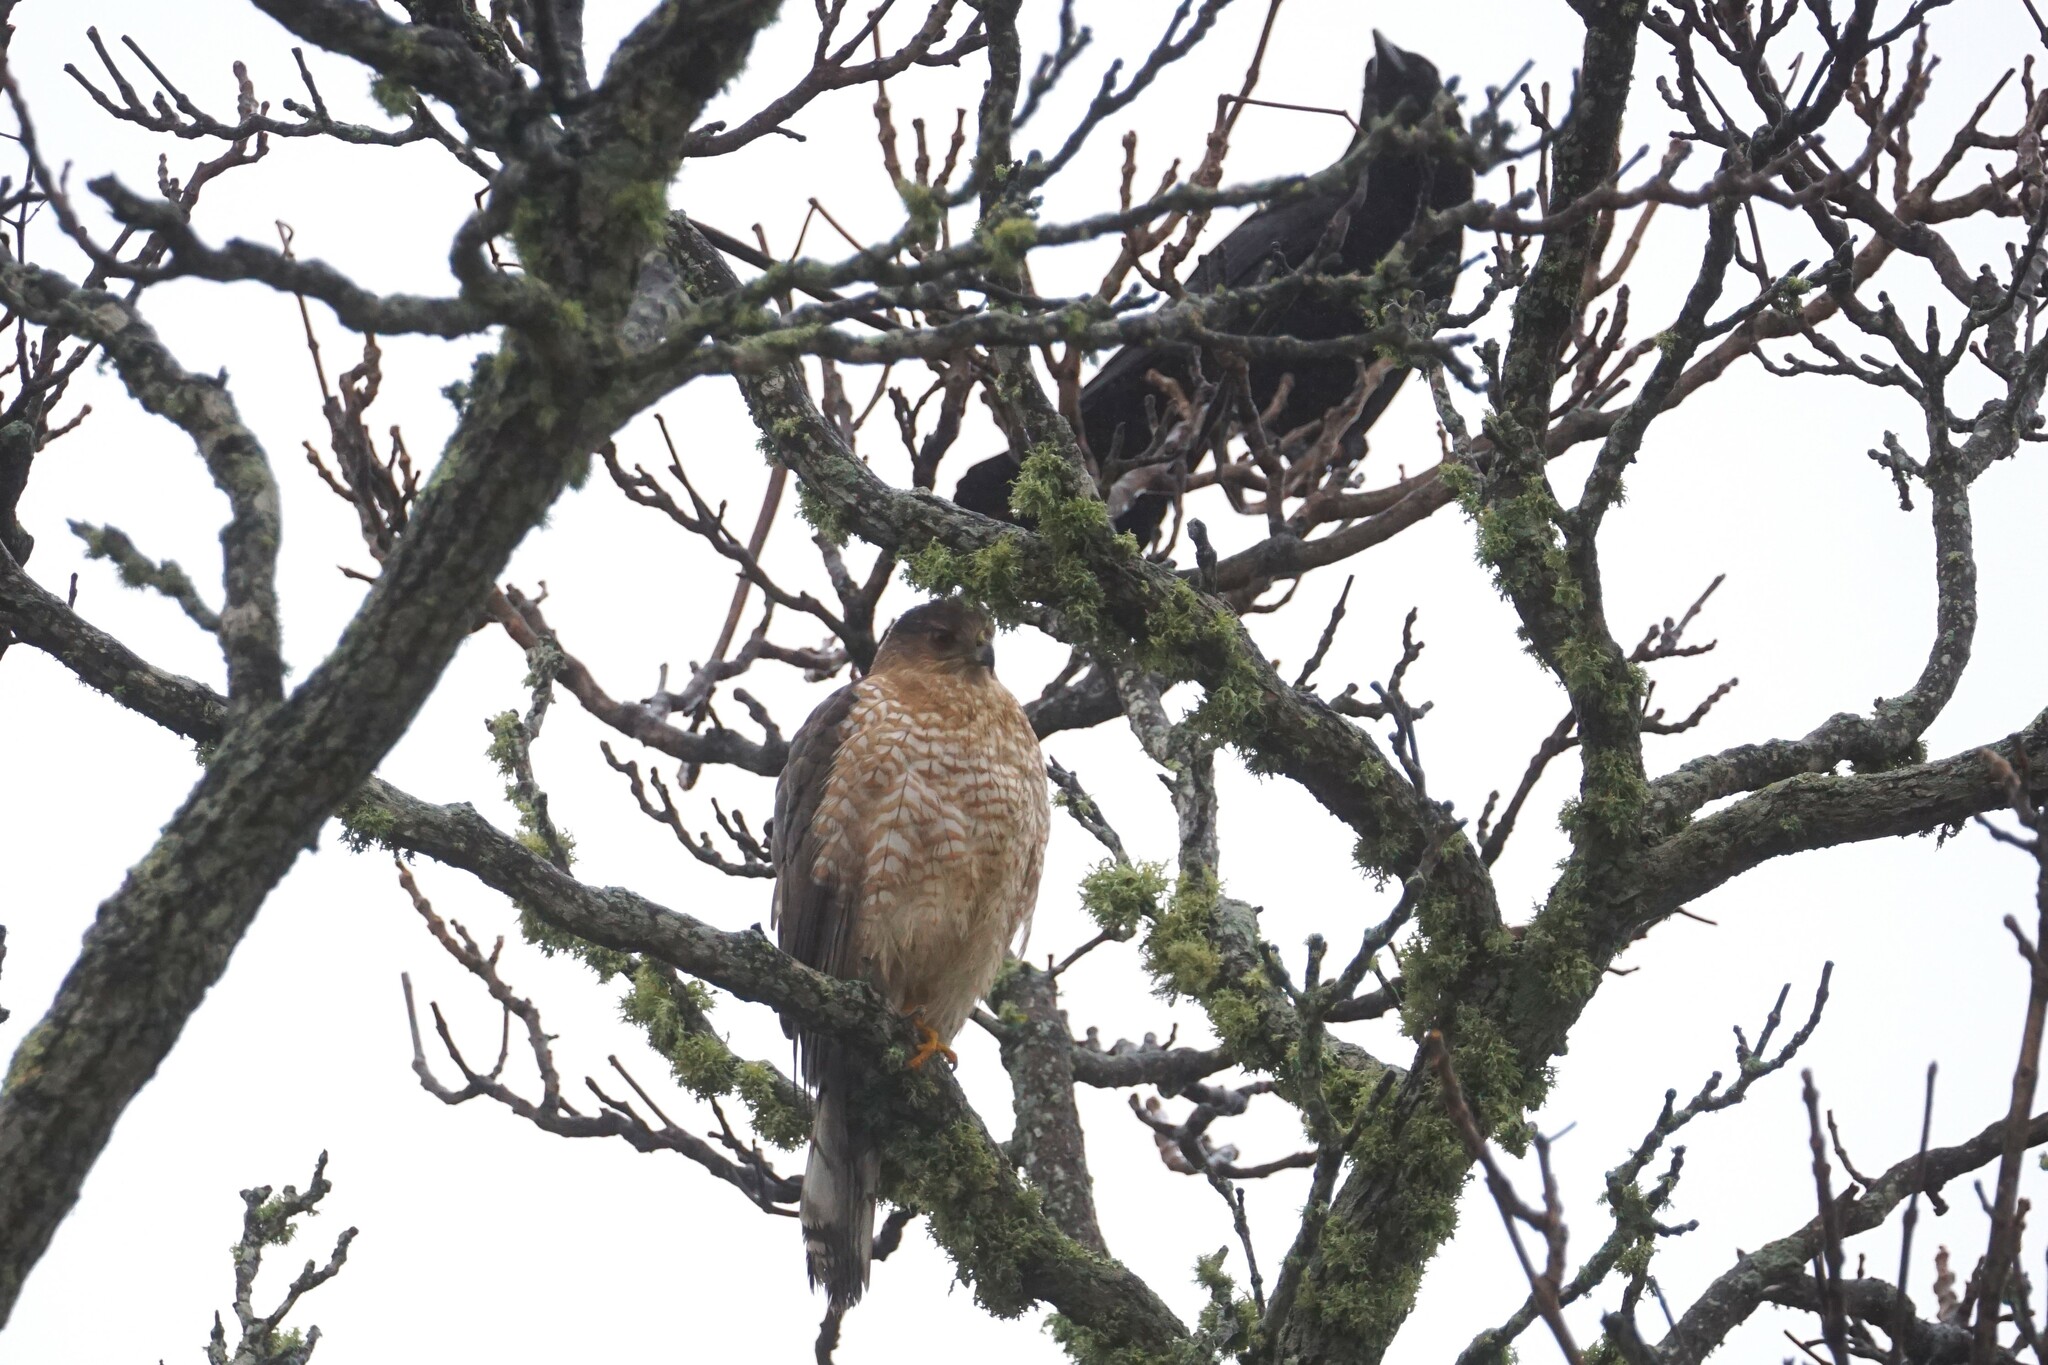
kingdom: Animalia
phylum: Chordata
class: Aves
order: Accipitriformes
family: Accipitridae
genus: Accipiter
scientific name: Accipiter cooperii
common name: Cooper's hawk
